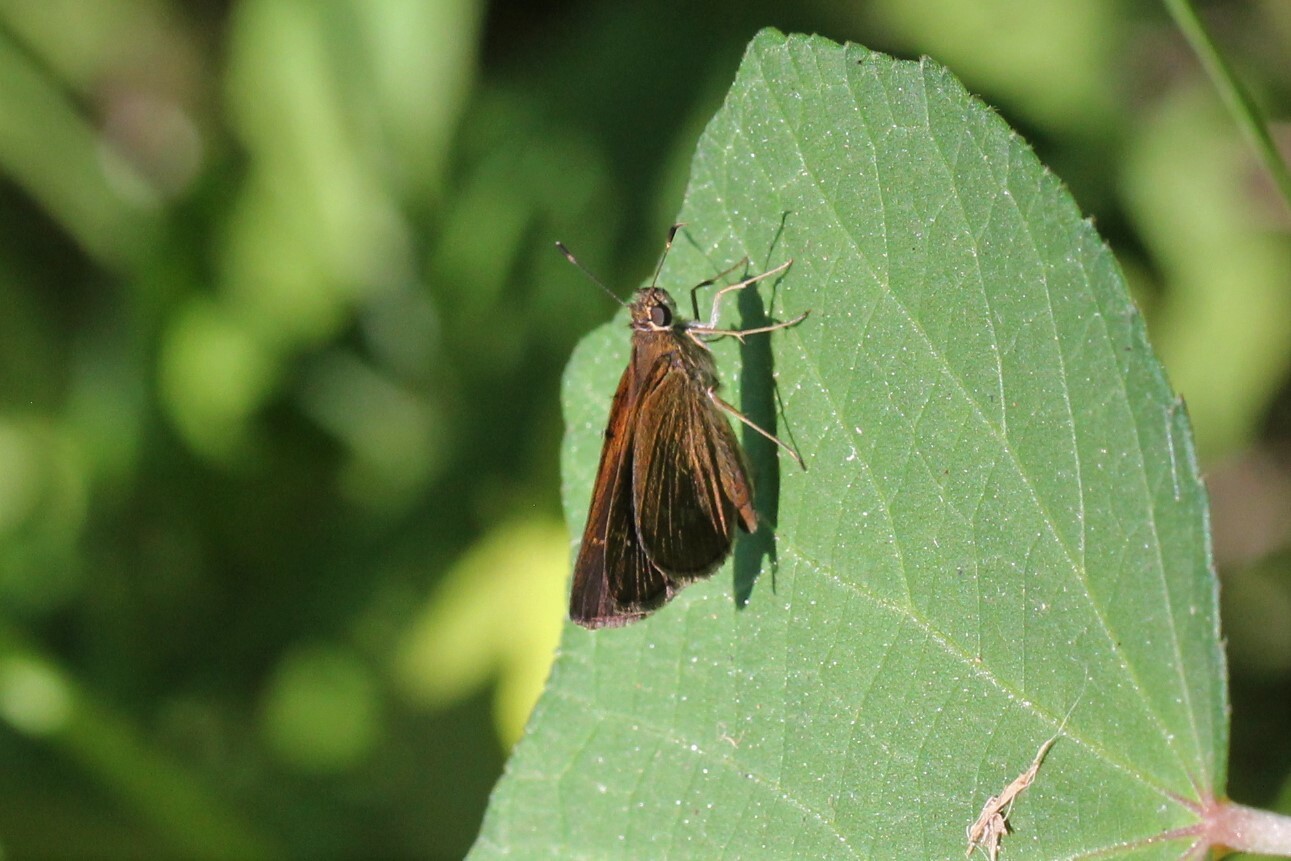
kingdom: Animalia
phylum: Arthropoda
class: Insecta
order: Lepidoptera
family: Hesperiidae
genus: Cymaenes
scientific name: Cymaenes tripunctus
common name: Dingy dotted skipper
